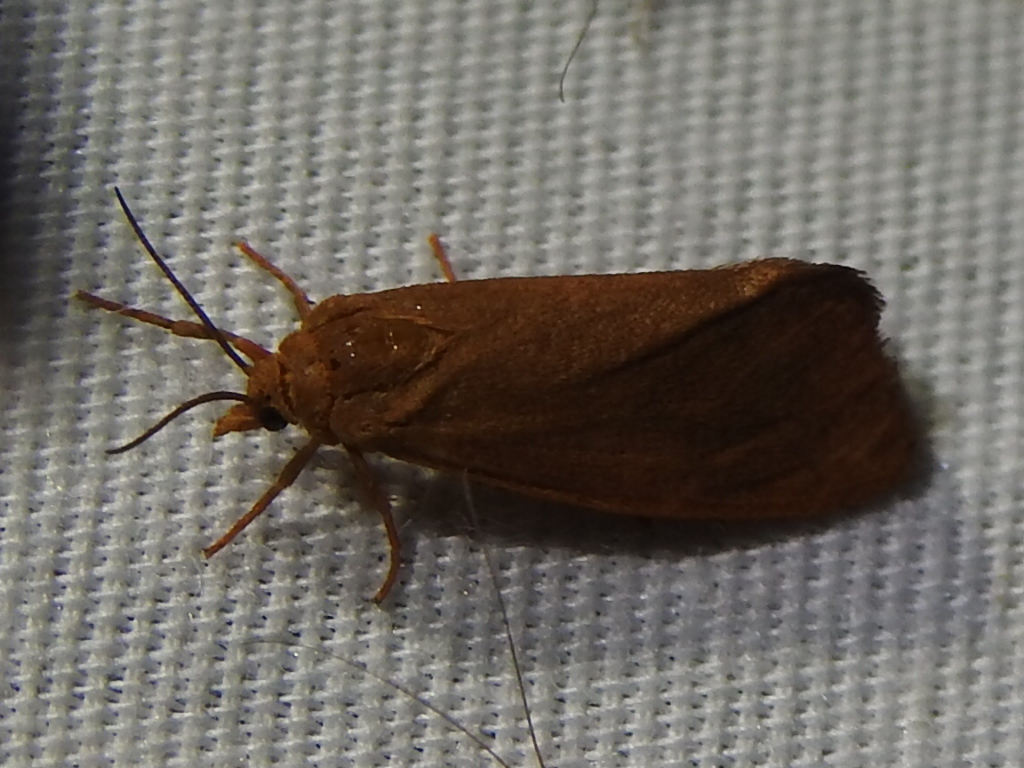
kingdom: Animalia
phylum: Arthropoda
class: Insecta
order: Lepidoptera
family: Erebidae
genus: Virbia
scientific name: Virbia aurantiaca
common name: Orange virbia moth
